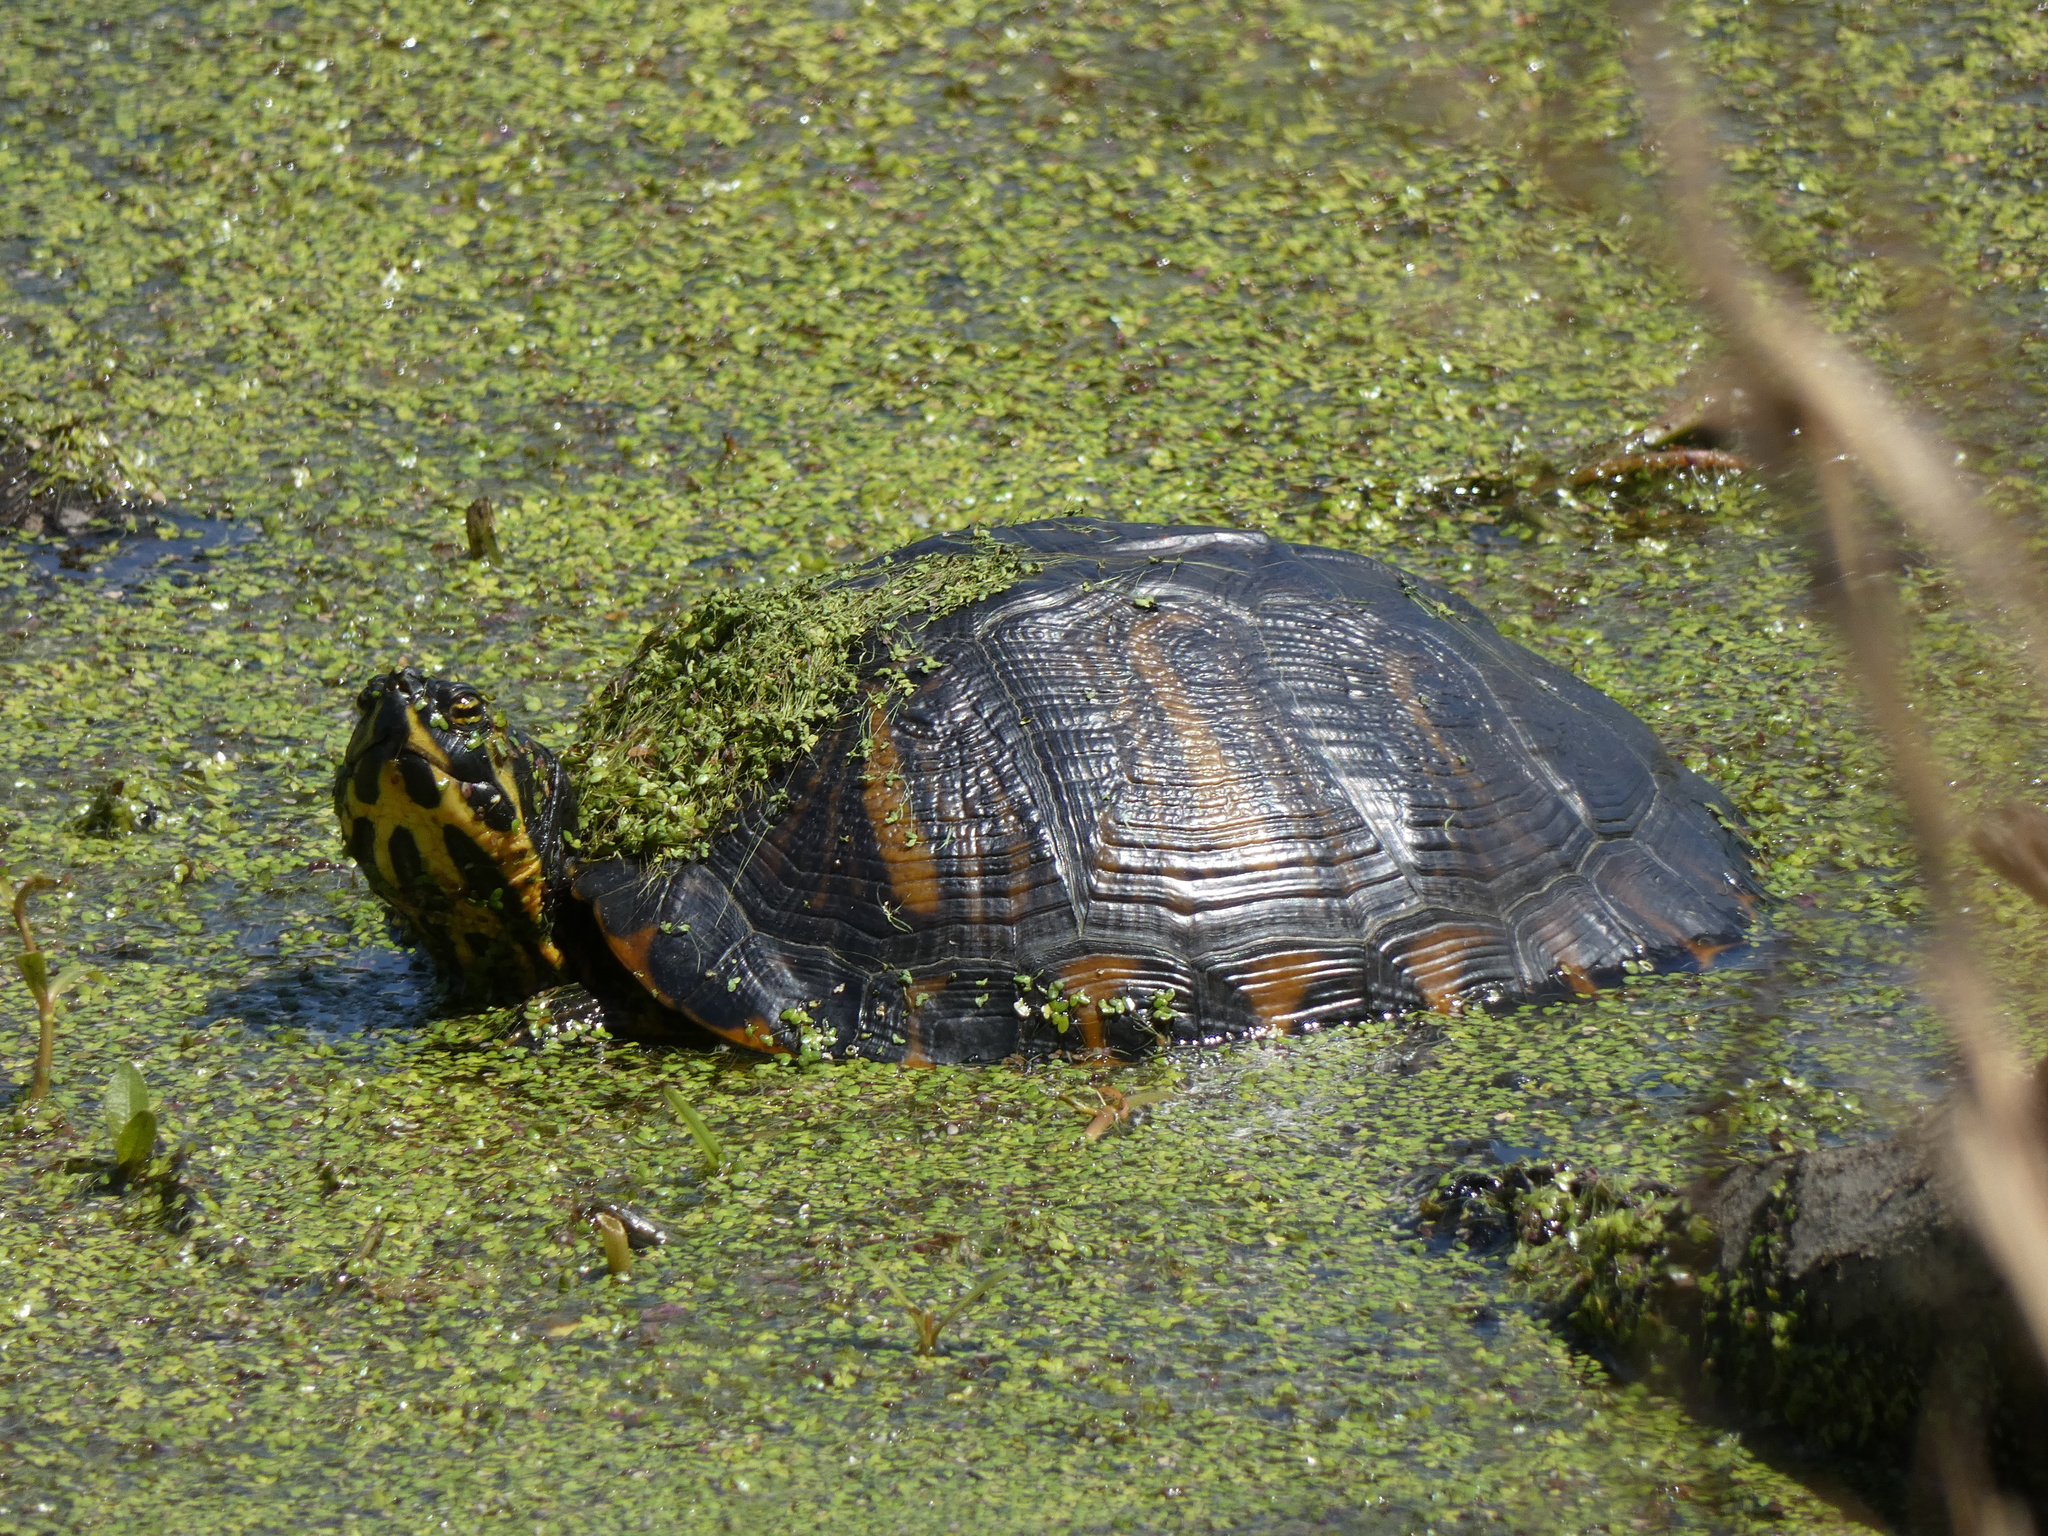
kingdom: Animalia
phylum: Chordata
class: Testudines
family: Emydidae
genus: Trachemys
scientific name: Trachemys scripta
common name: Slider
